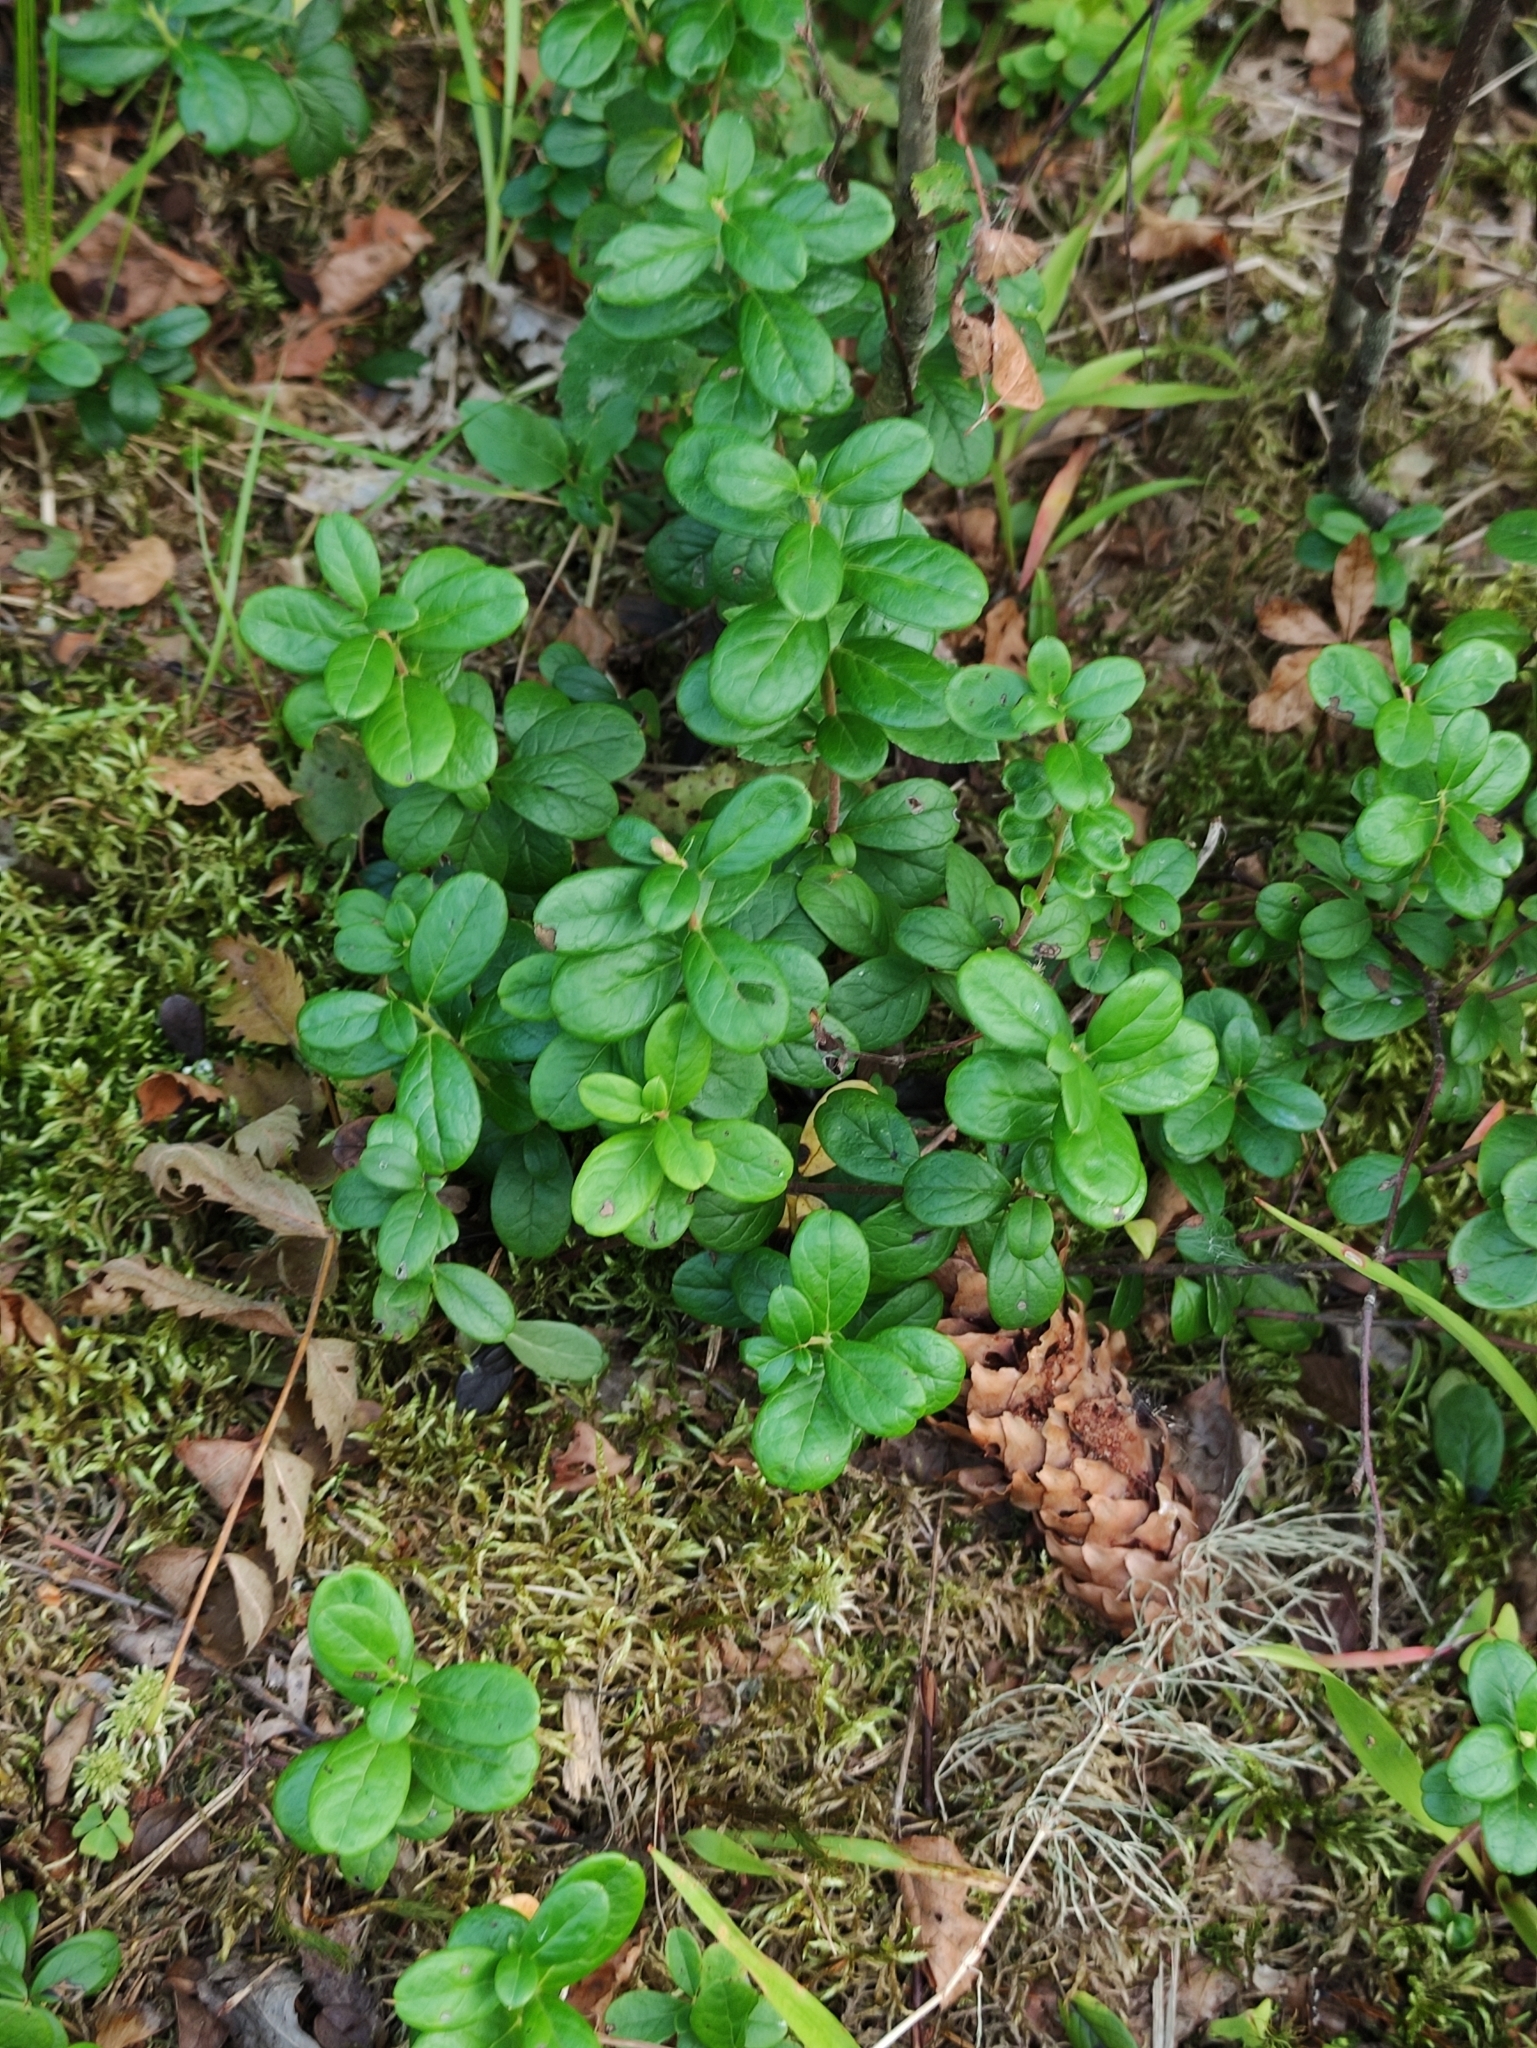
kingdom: Plantae
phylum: Tracheophyta
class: Magnoliopsida
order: Ericales
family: Ericaceae
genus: Vaccinium
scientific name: Vaccinium vitis-idaea
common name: Cowberry
